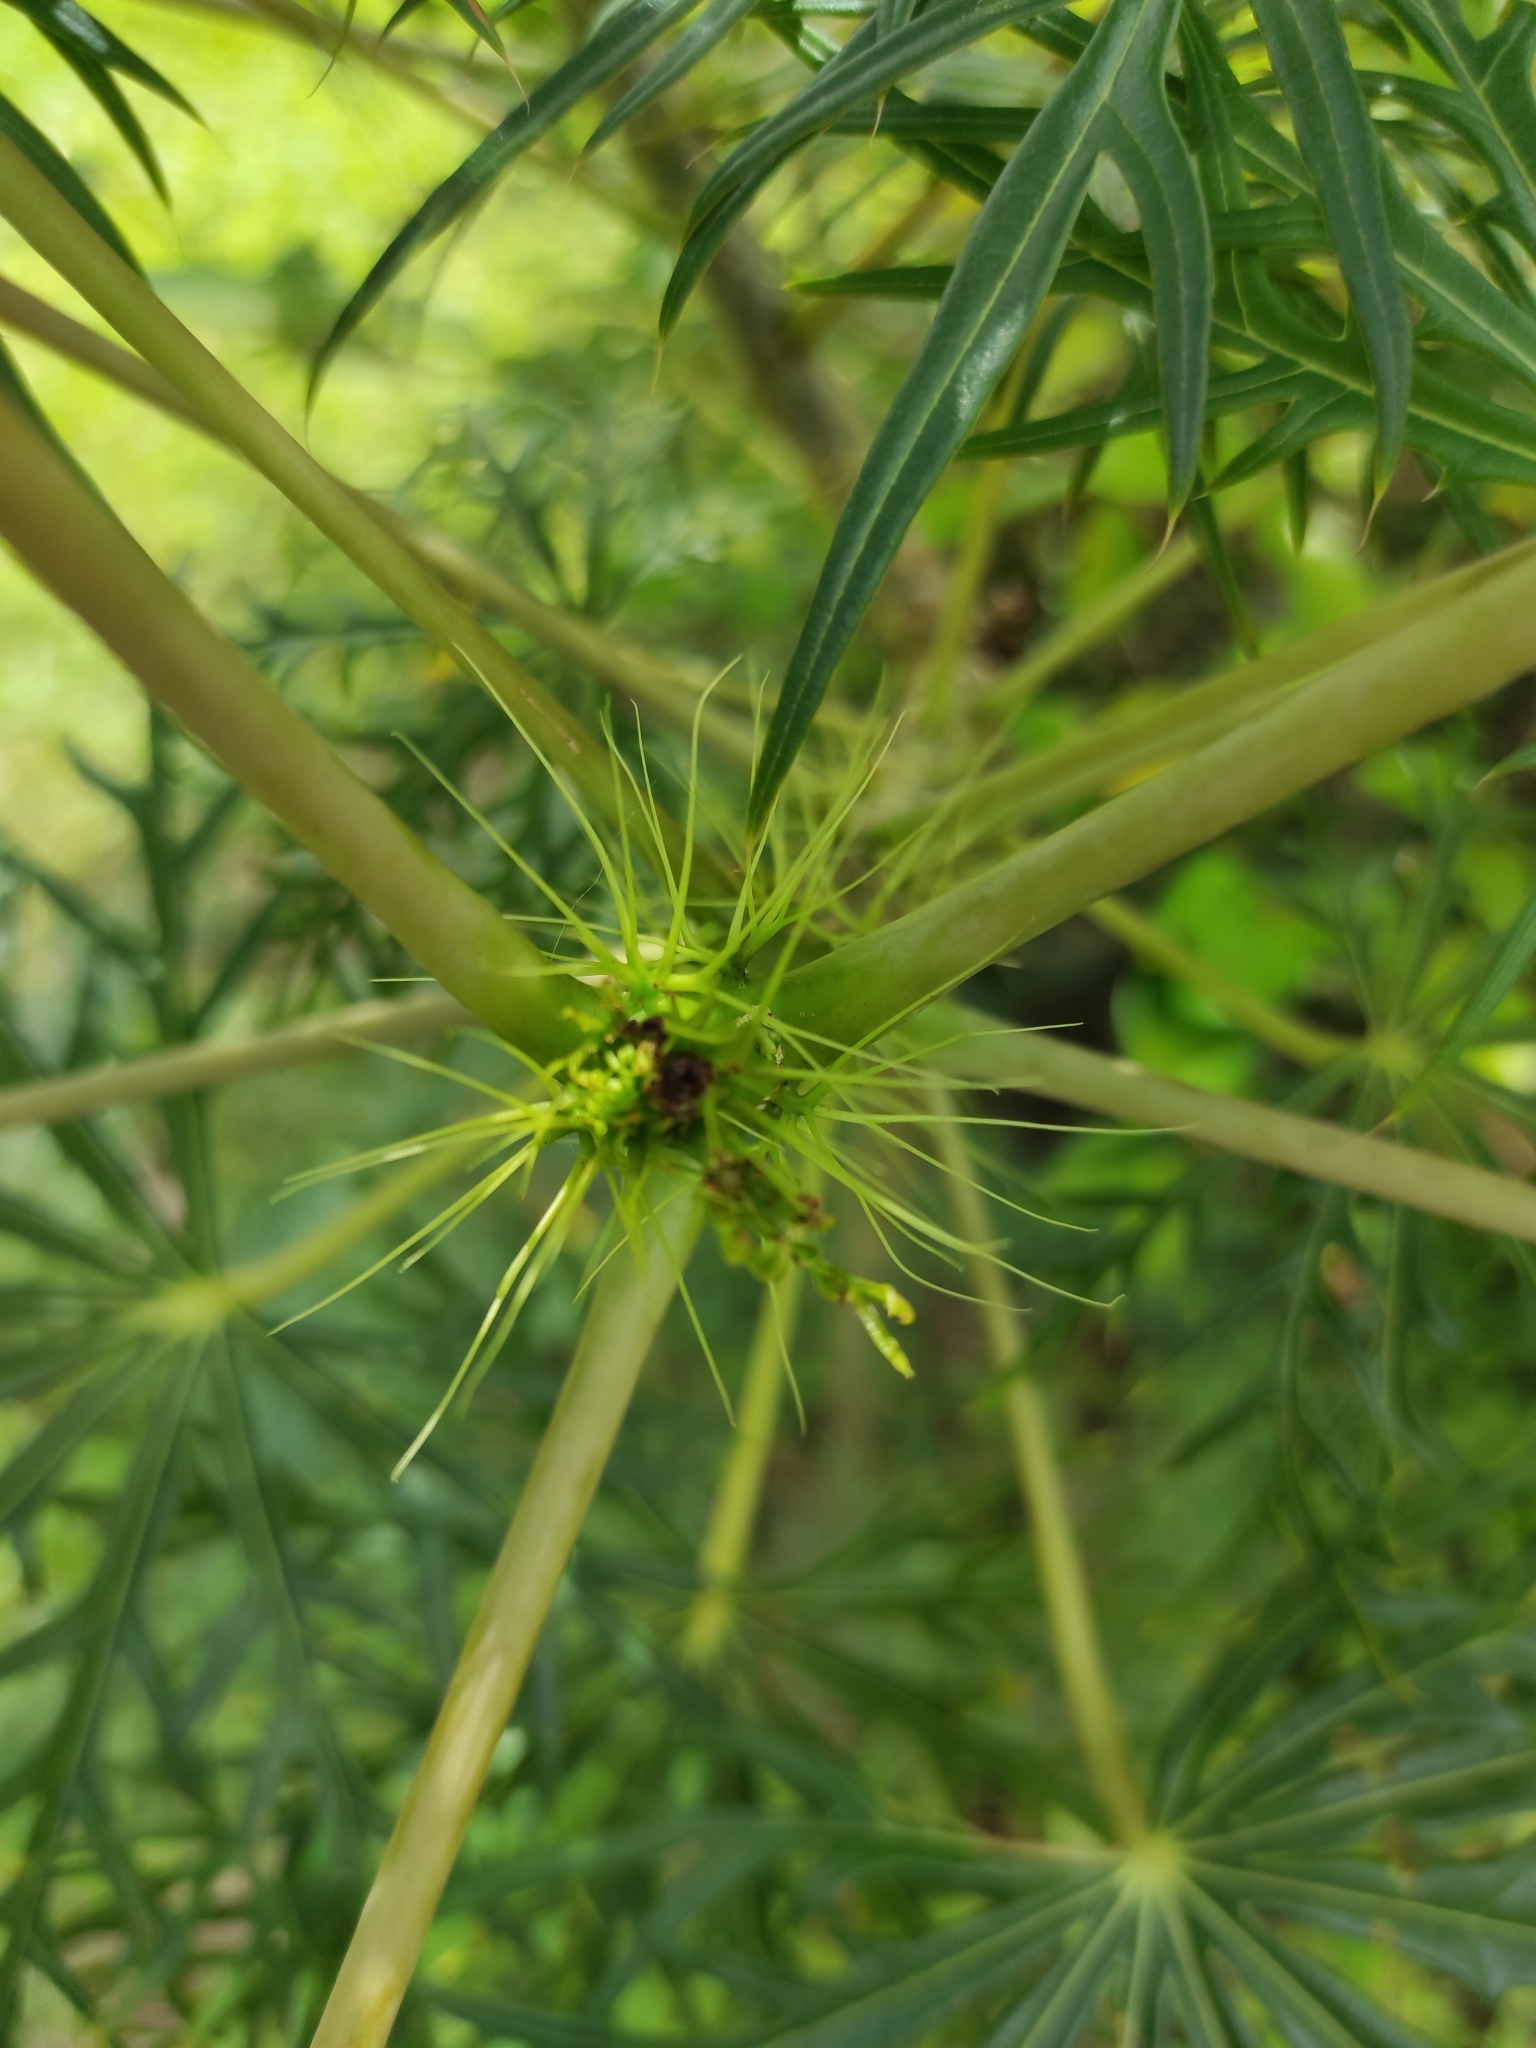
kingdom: Plantae
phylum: Tracheophyta
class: Magnoliopsida
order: Malpighiales
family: Euphorbiaceae
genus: Jatropha
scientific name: Jatropha multifida
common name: Coralbush
